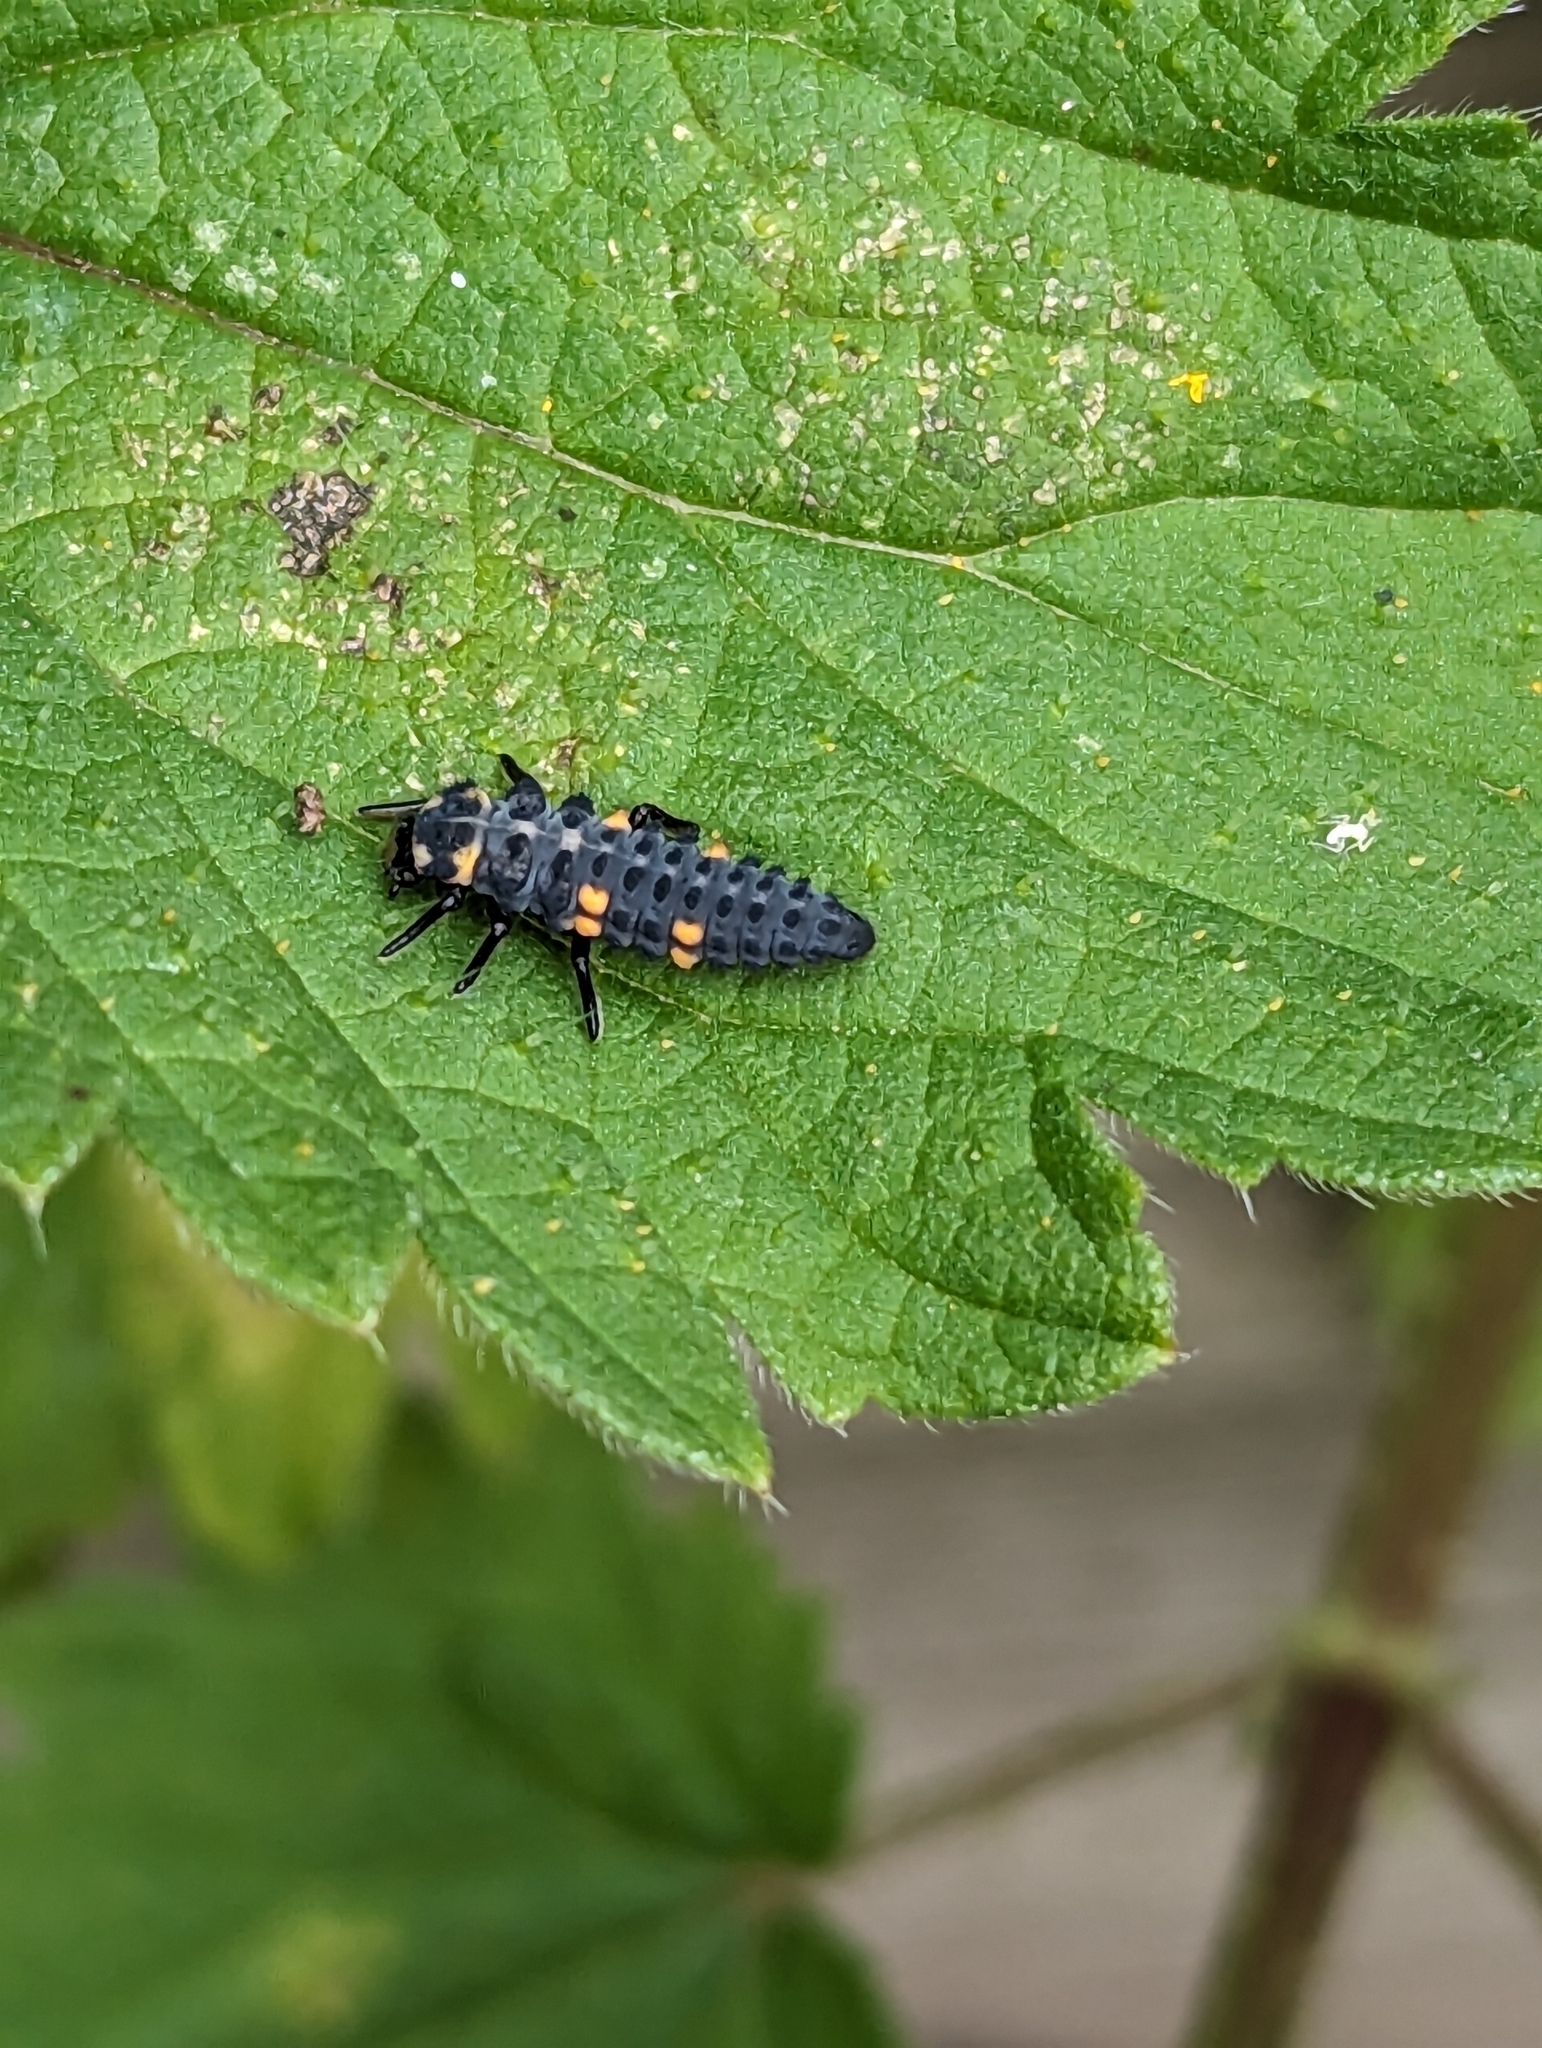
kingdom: Animalia
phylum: Arthropoda
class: Insecta
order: Coleoptera
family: Coccinellidae
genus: Coccinella
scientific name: Coccinella septempunctata
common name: Sevenspotted lady beetle
